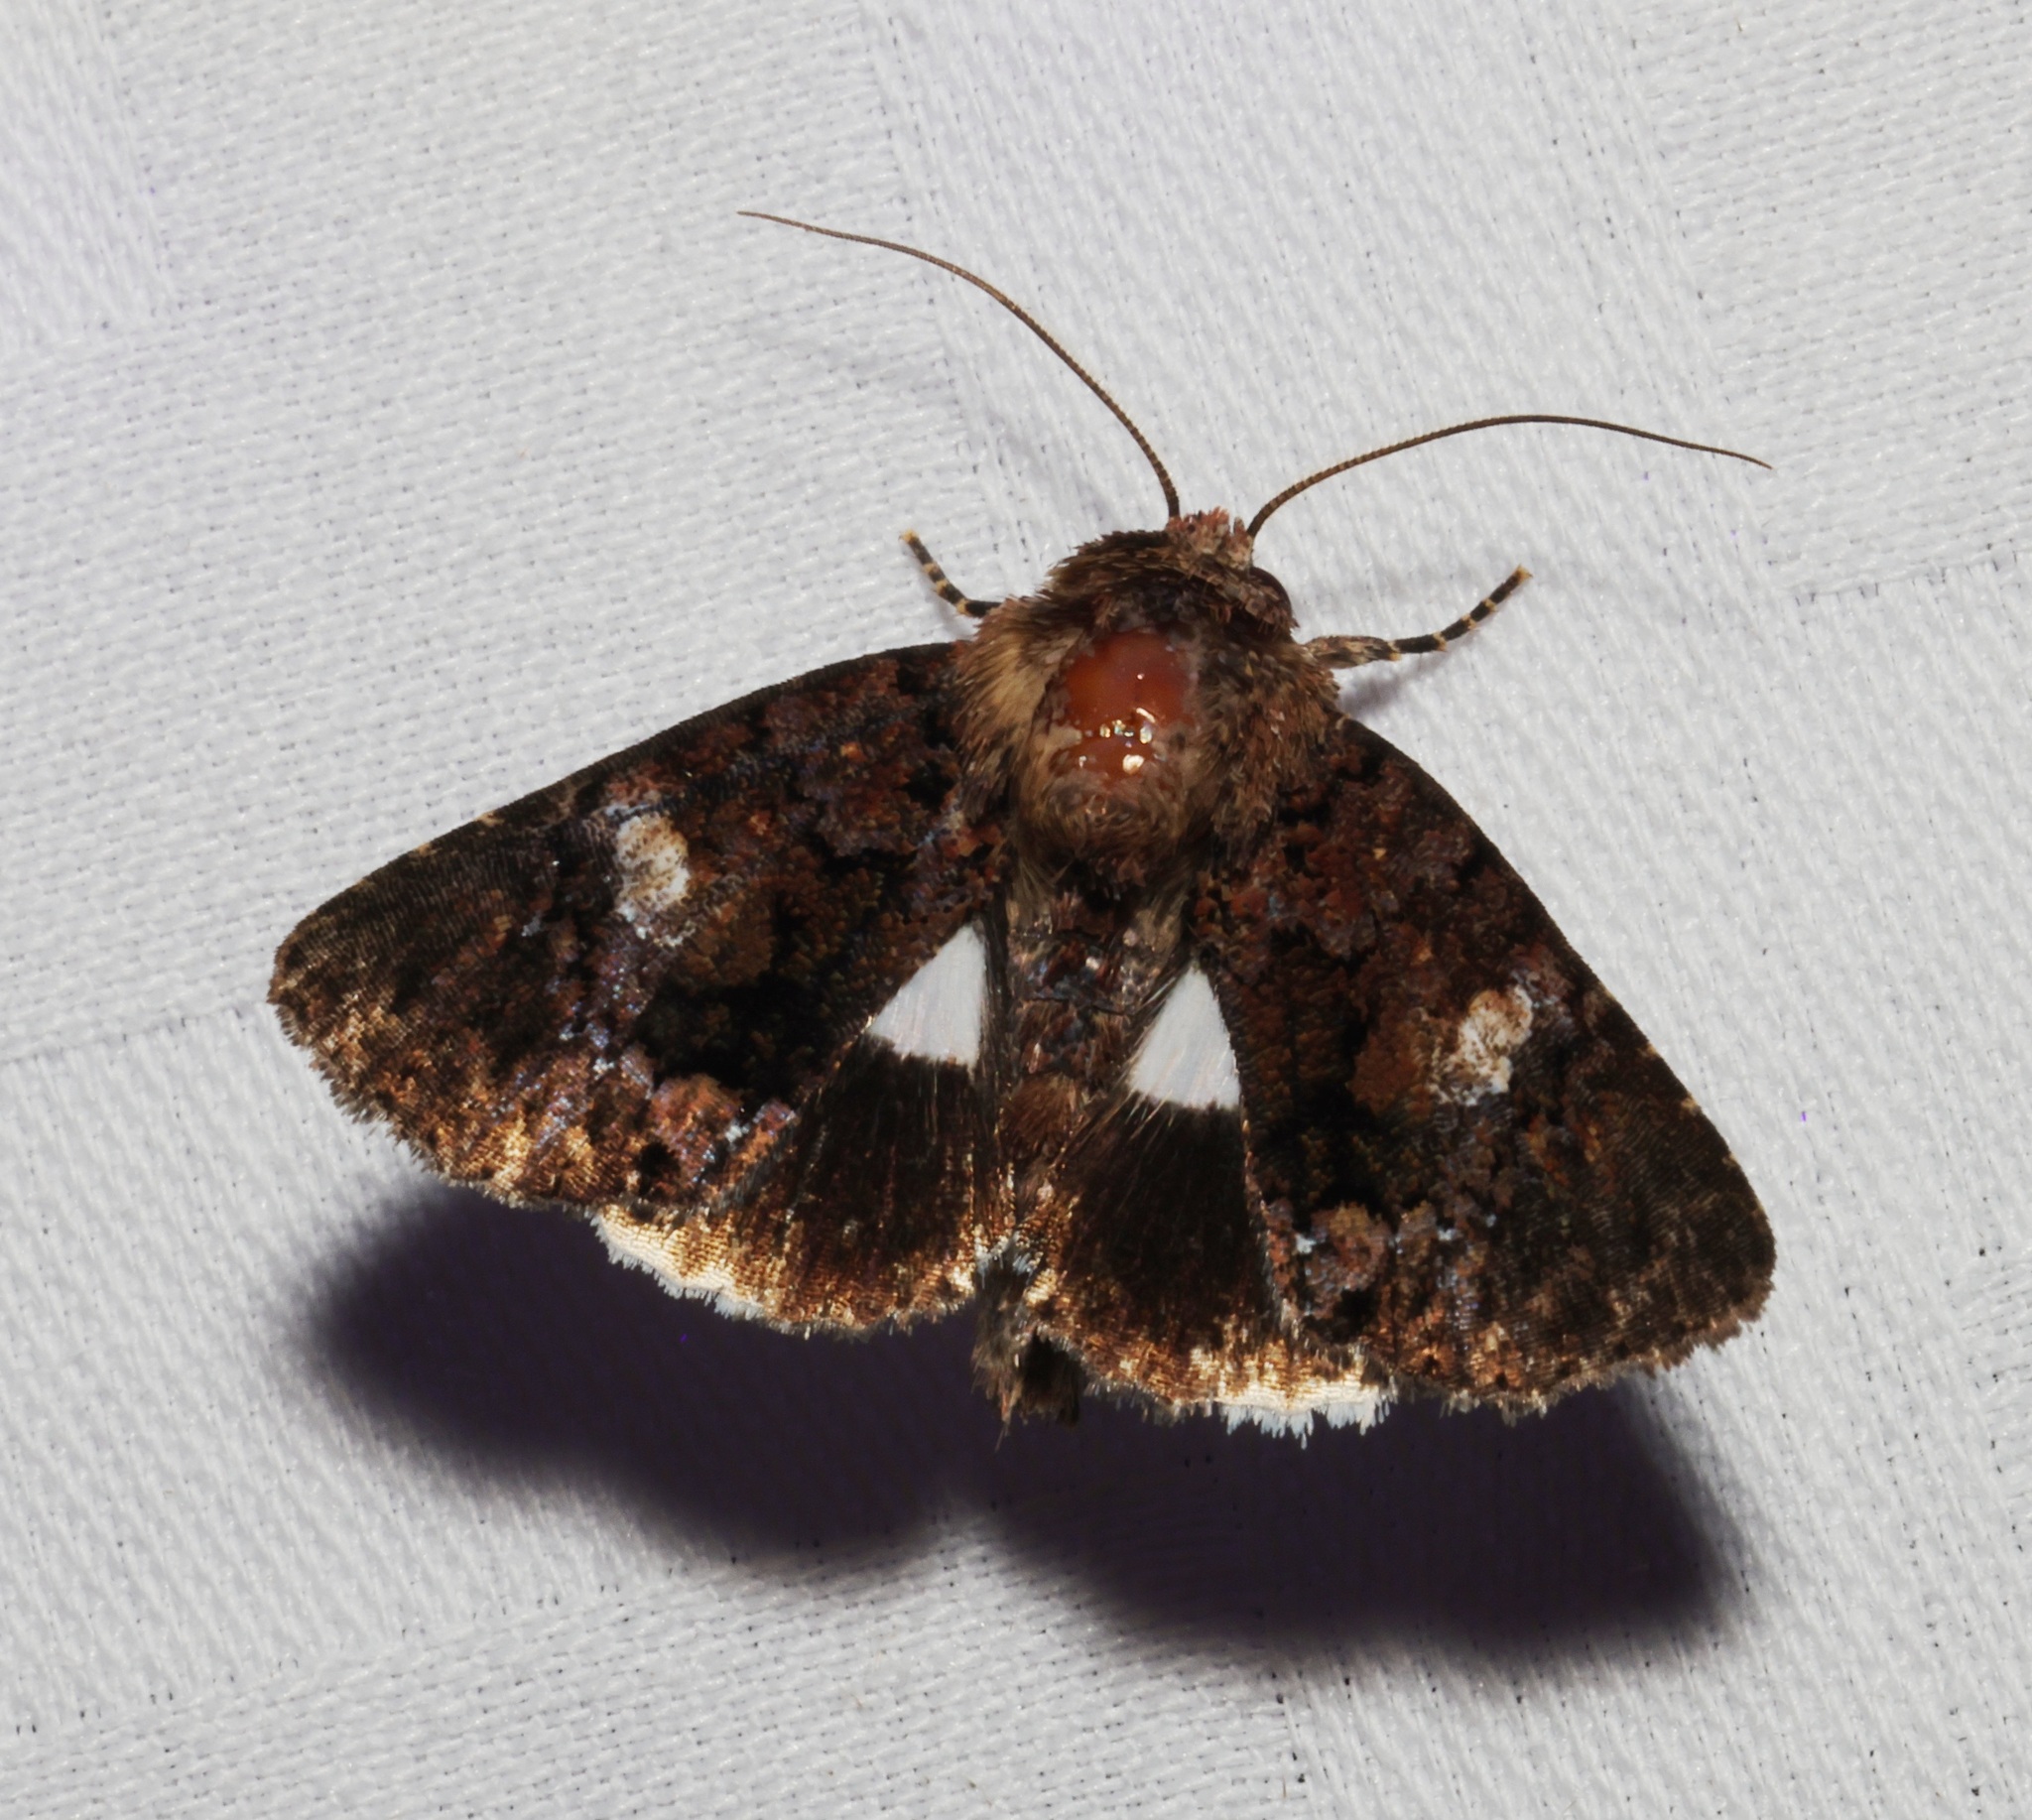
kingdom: Animalia
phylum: Arthropoda
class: Insecta
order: Lepidoptera
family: Noctuidae
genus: Aedia
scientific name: Aedia leucomelas
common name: Sorcerer
